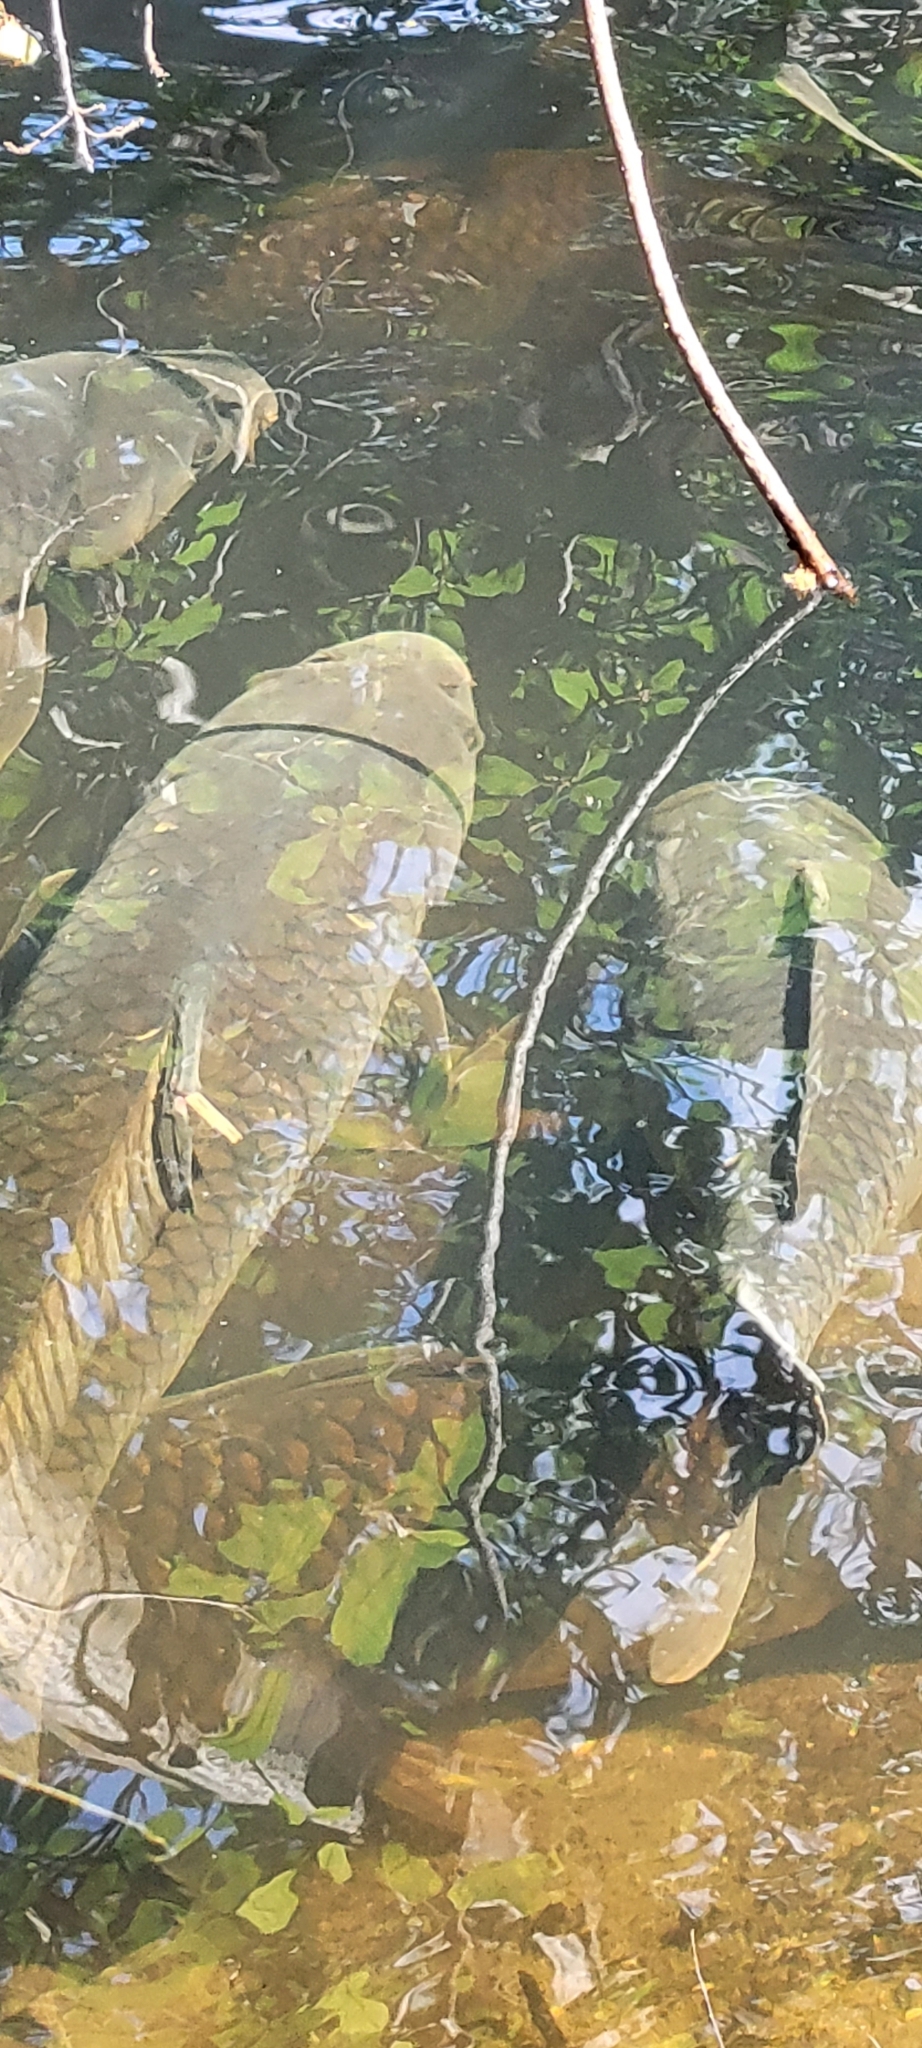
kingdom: Animalia
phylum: Chordata
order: Cypriniformes
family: Cyprinidae
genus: Cyprinus
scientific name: Cyprinus carpio
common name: Common carp
